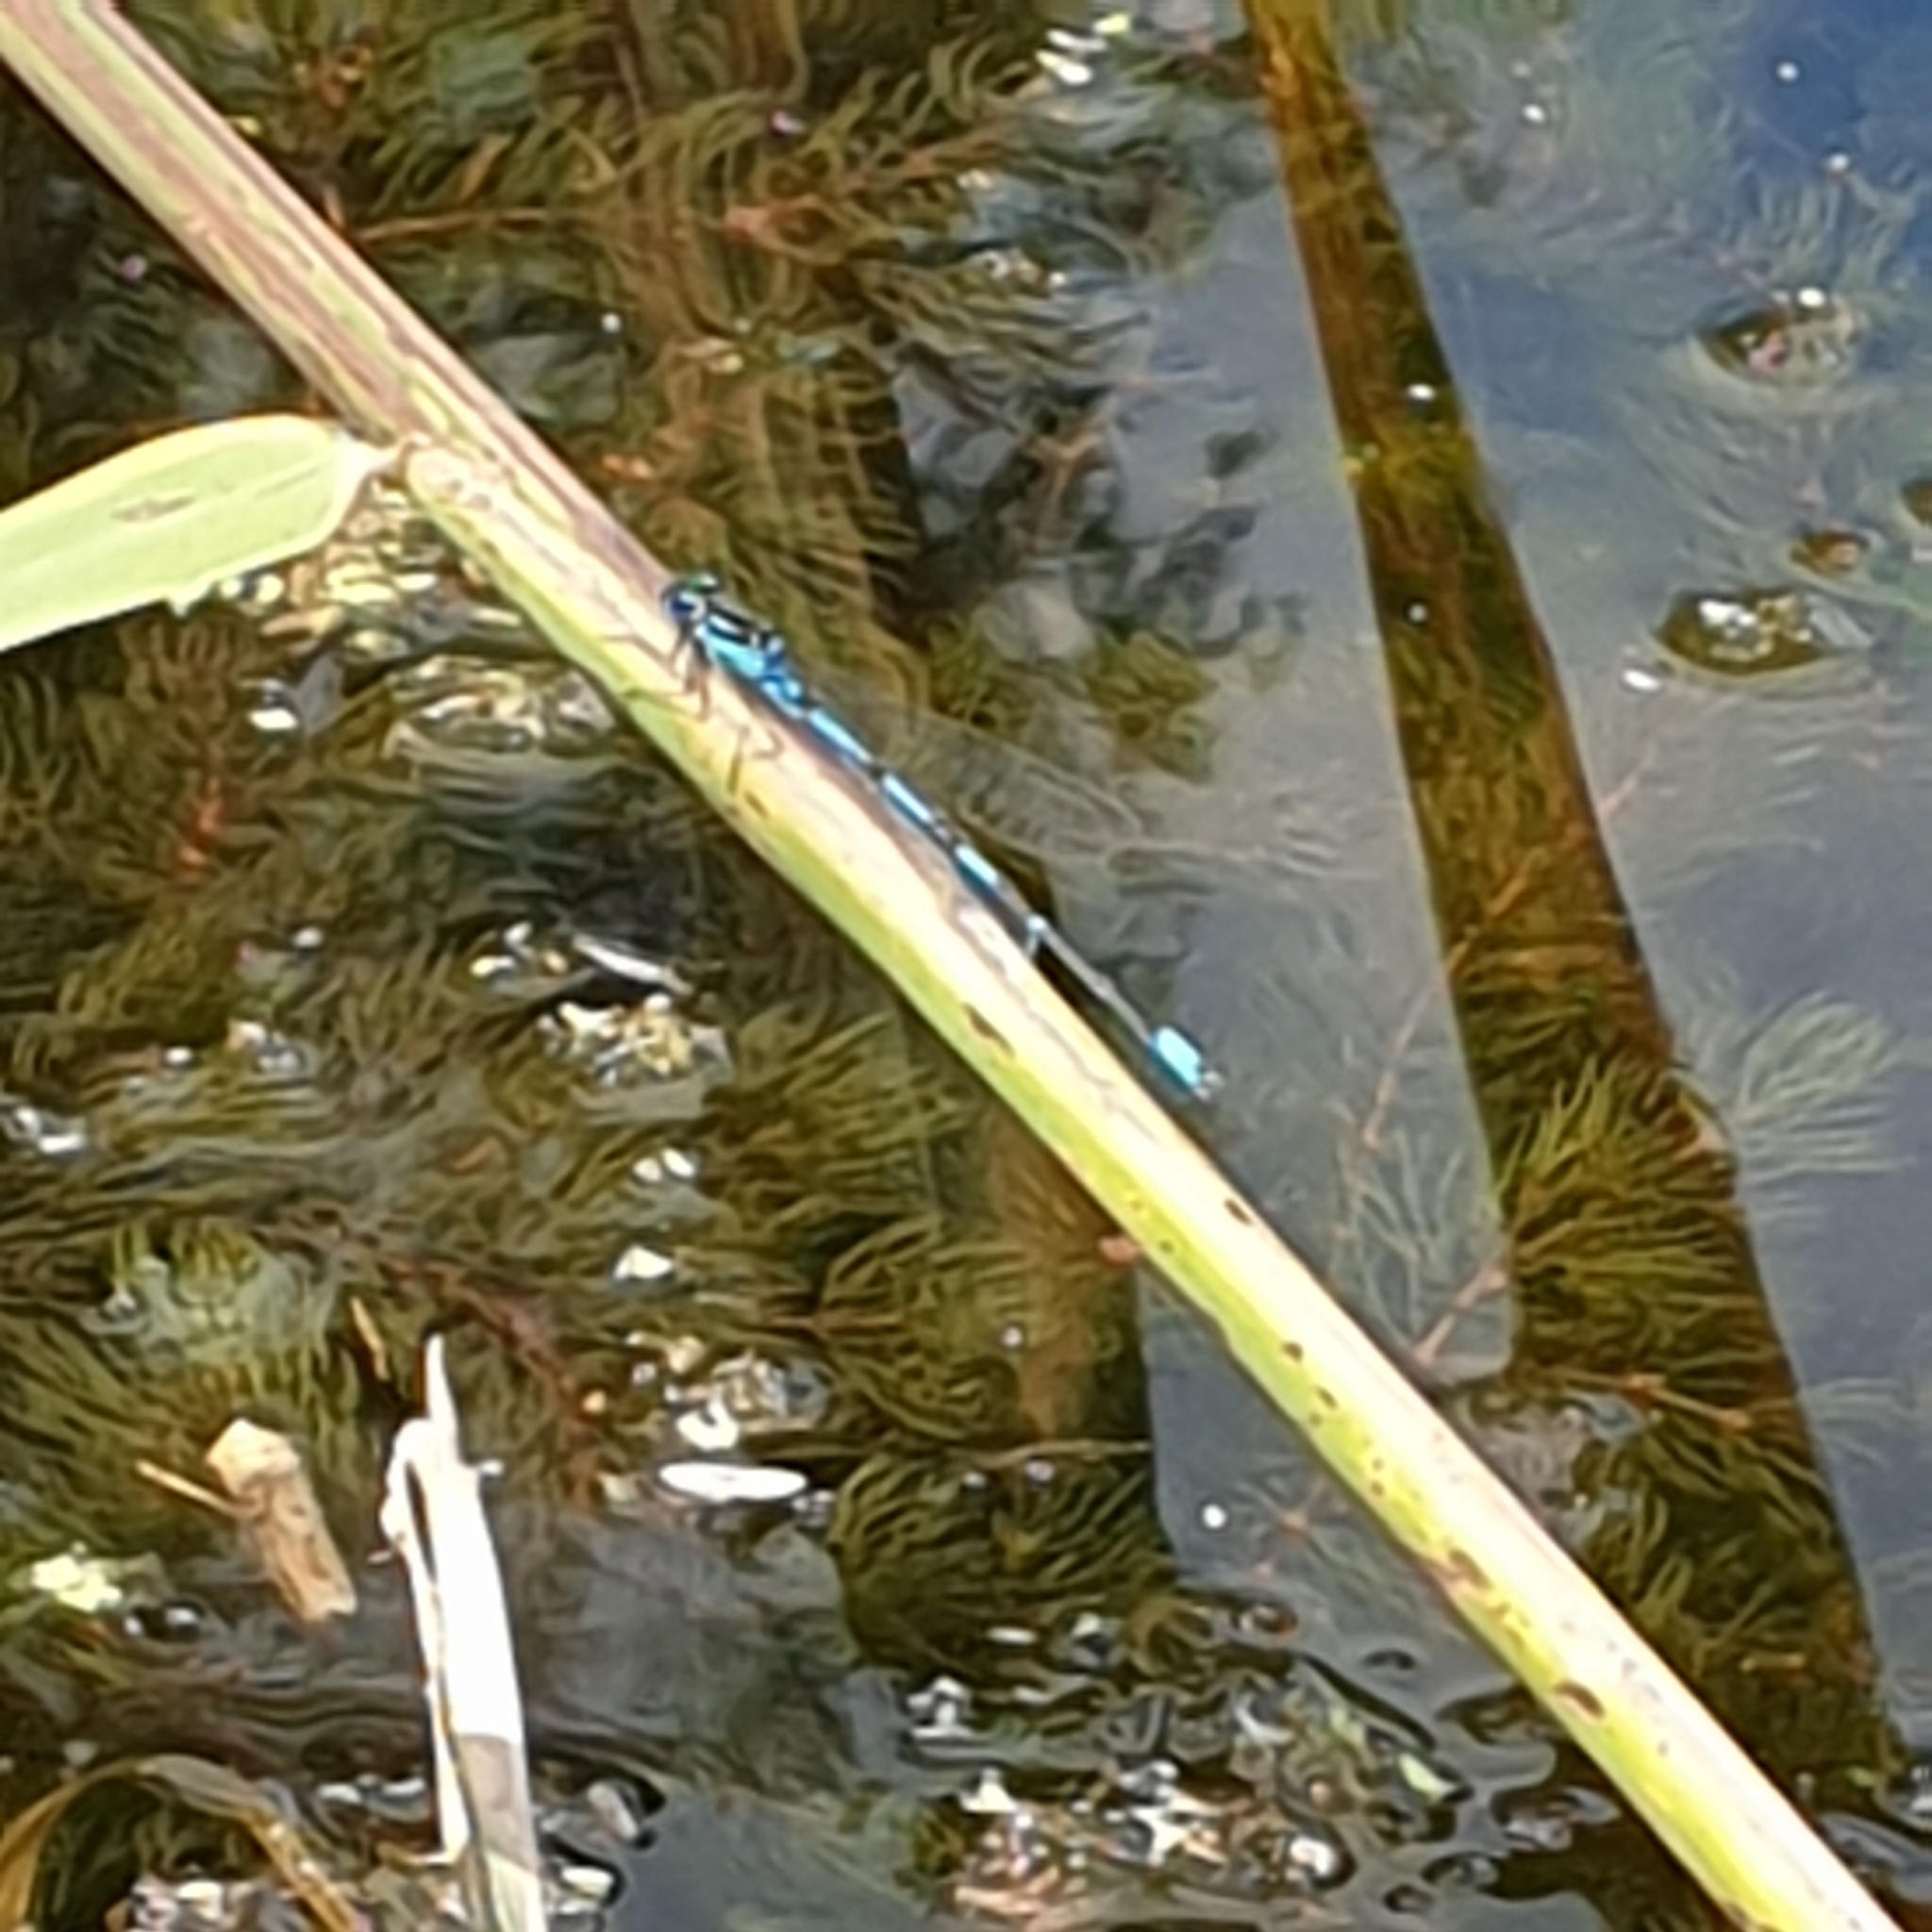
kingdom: Animalia
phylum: Arthropoda
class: Insecta
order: Odonata
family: Coenagrionidae
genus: Coenagrion
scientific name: Coenagrion pulchellum
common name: Variable bluet
